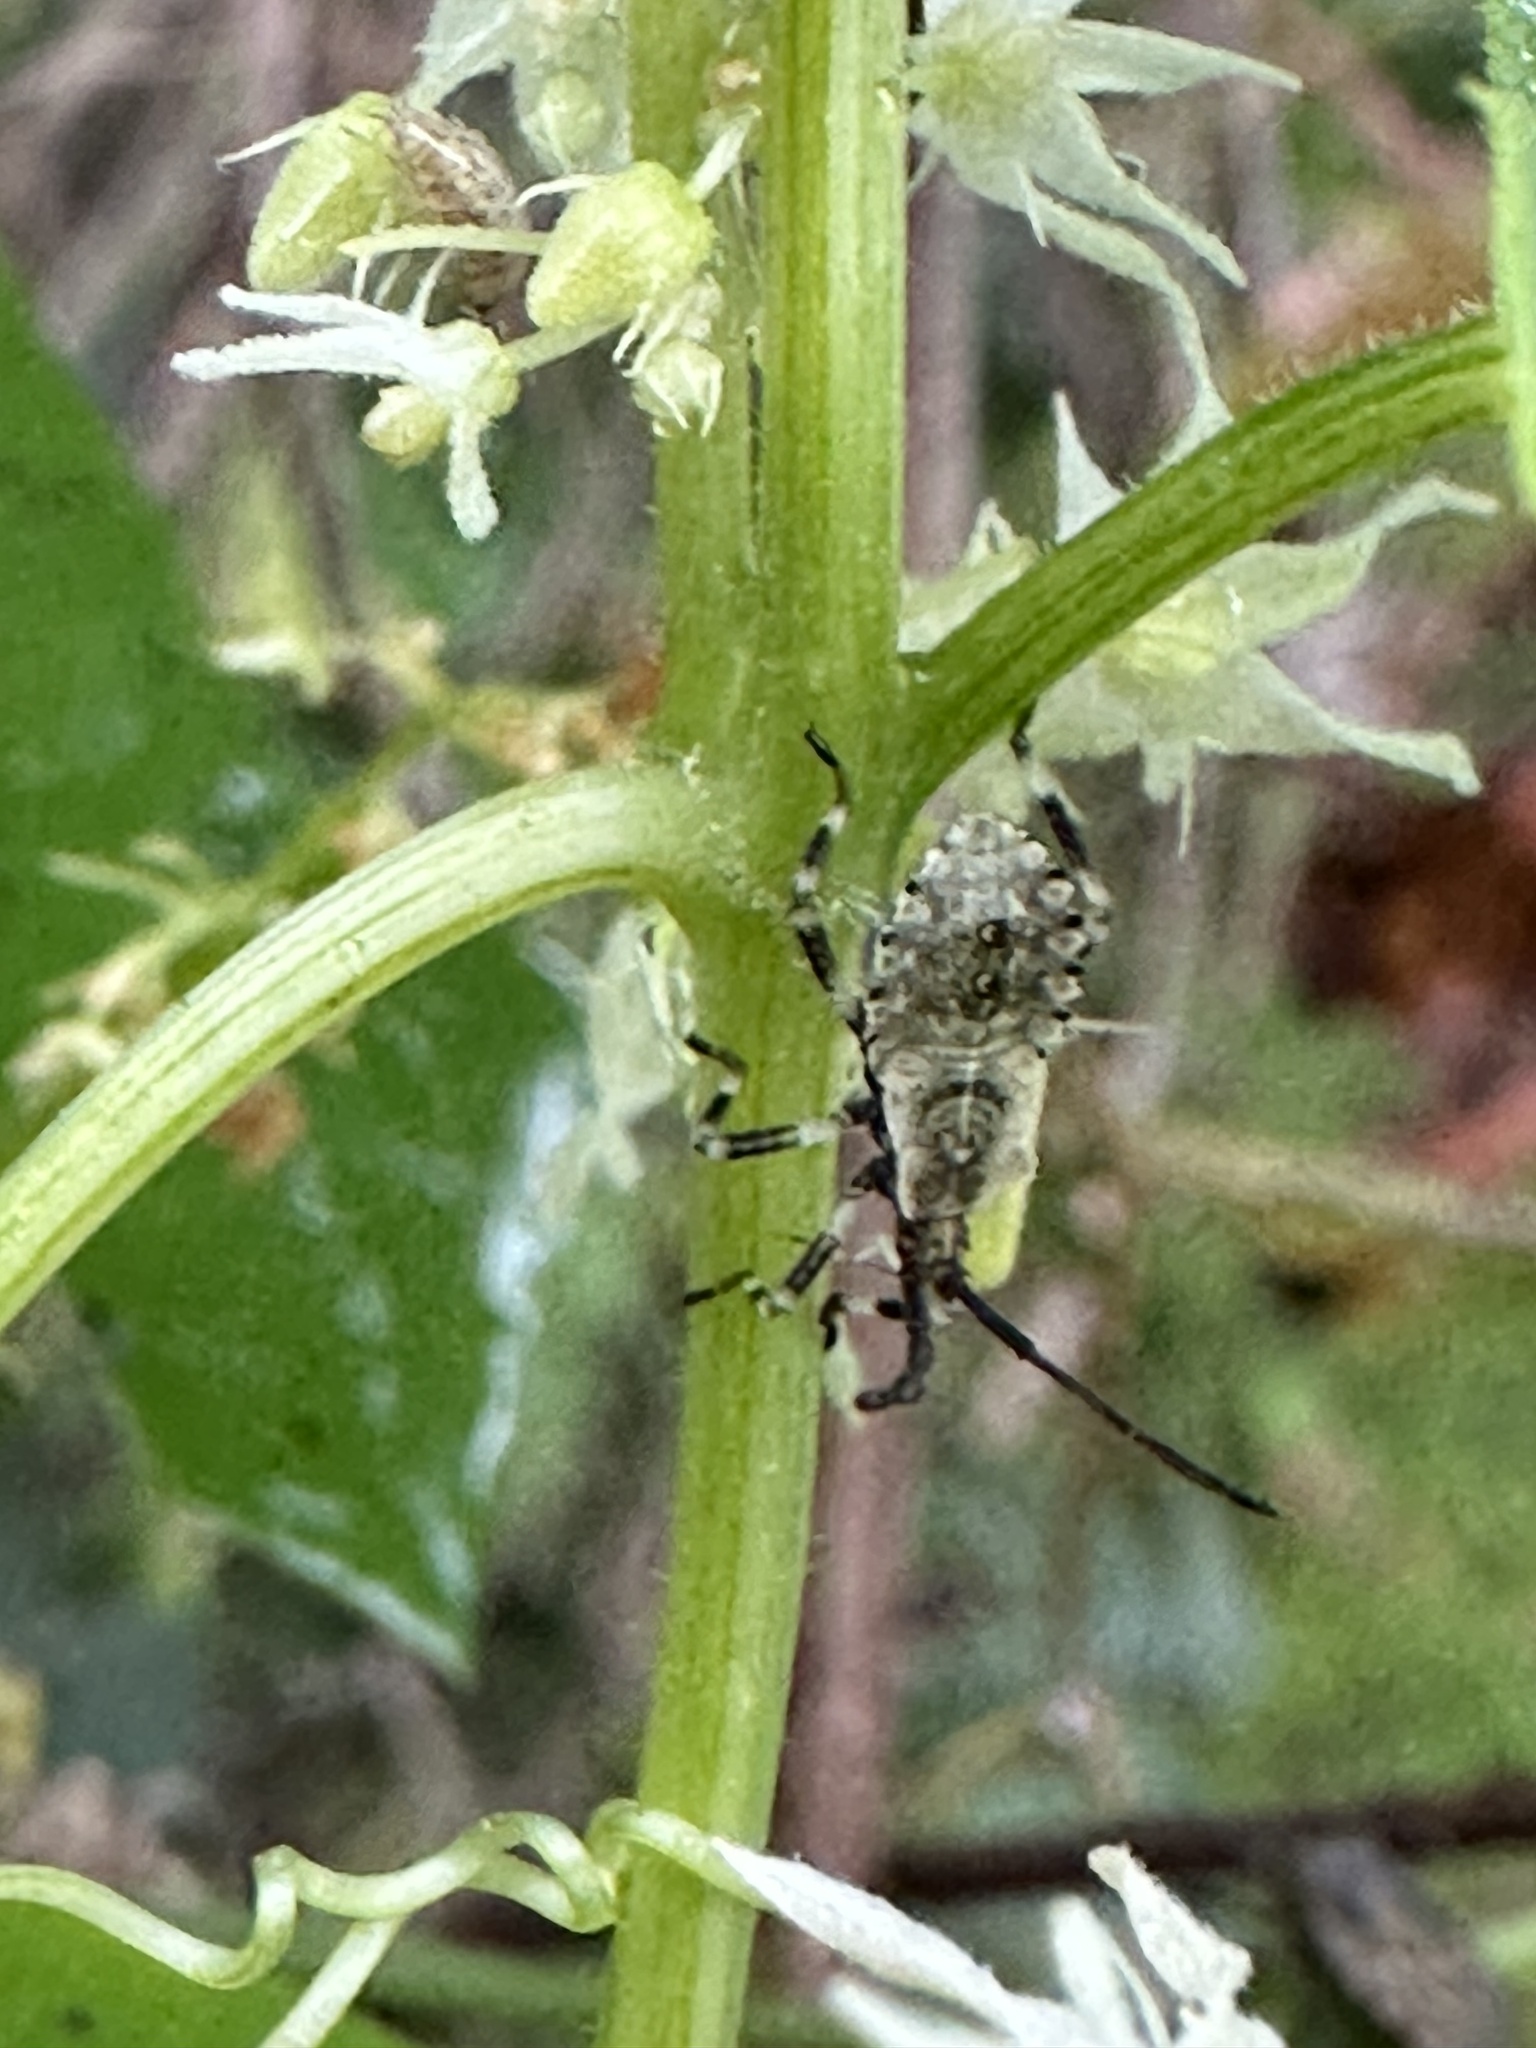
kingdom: Animalia
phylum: Arthropoda
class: Insecta
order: Hemiptera
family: Coreidae
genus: Anasa
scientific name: Anasa armigera
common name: Horned squash bug
